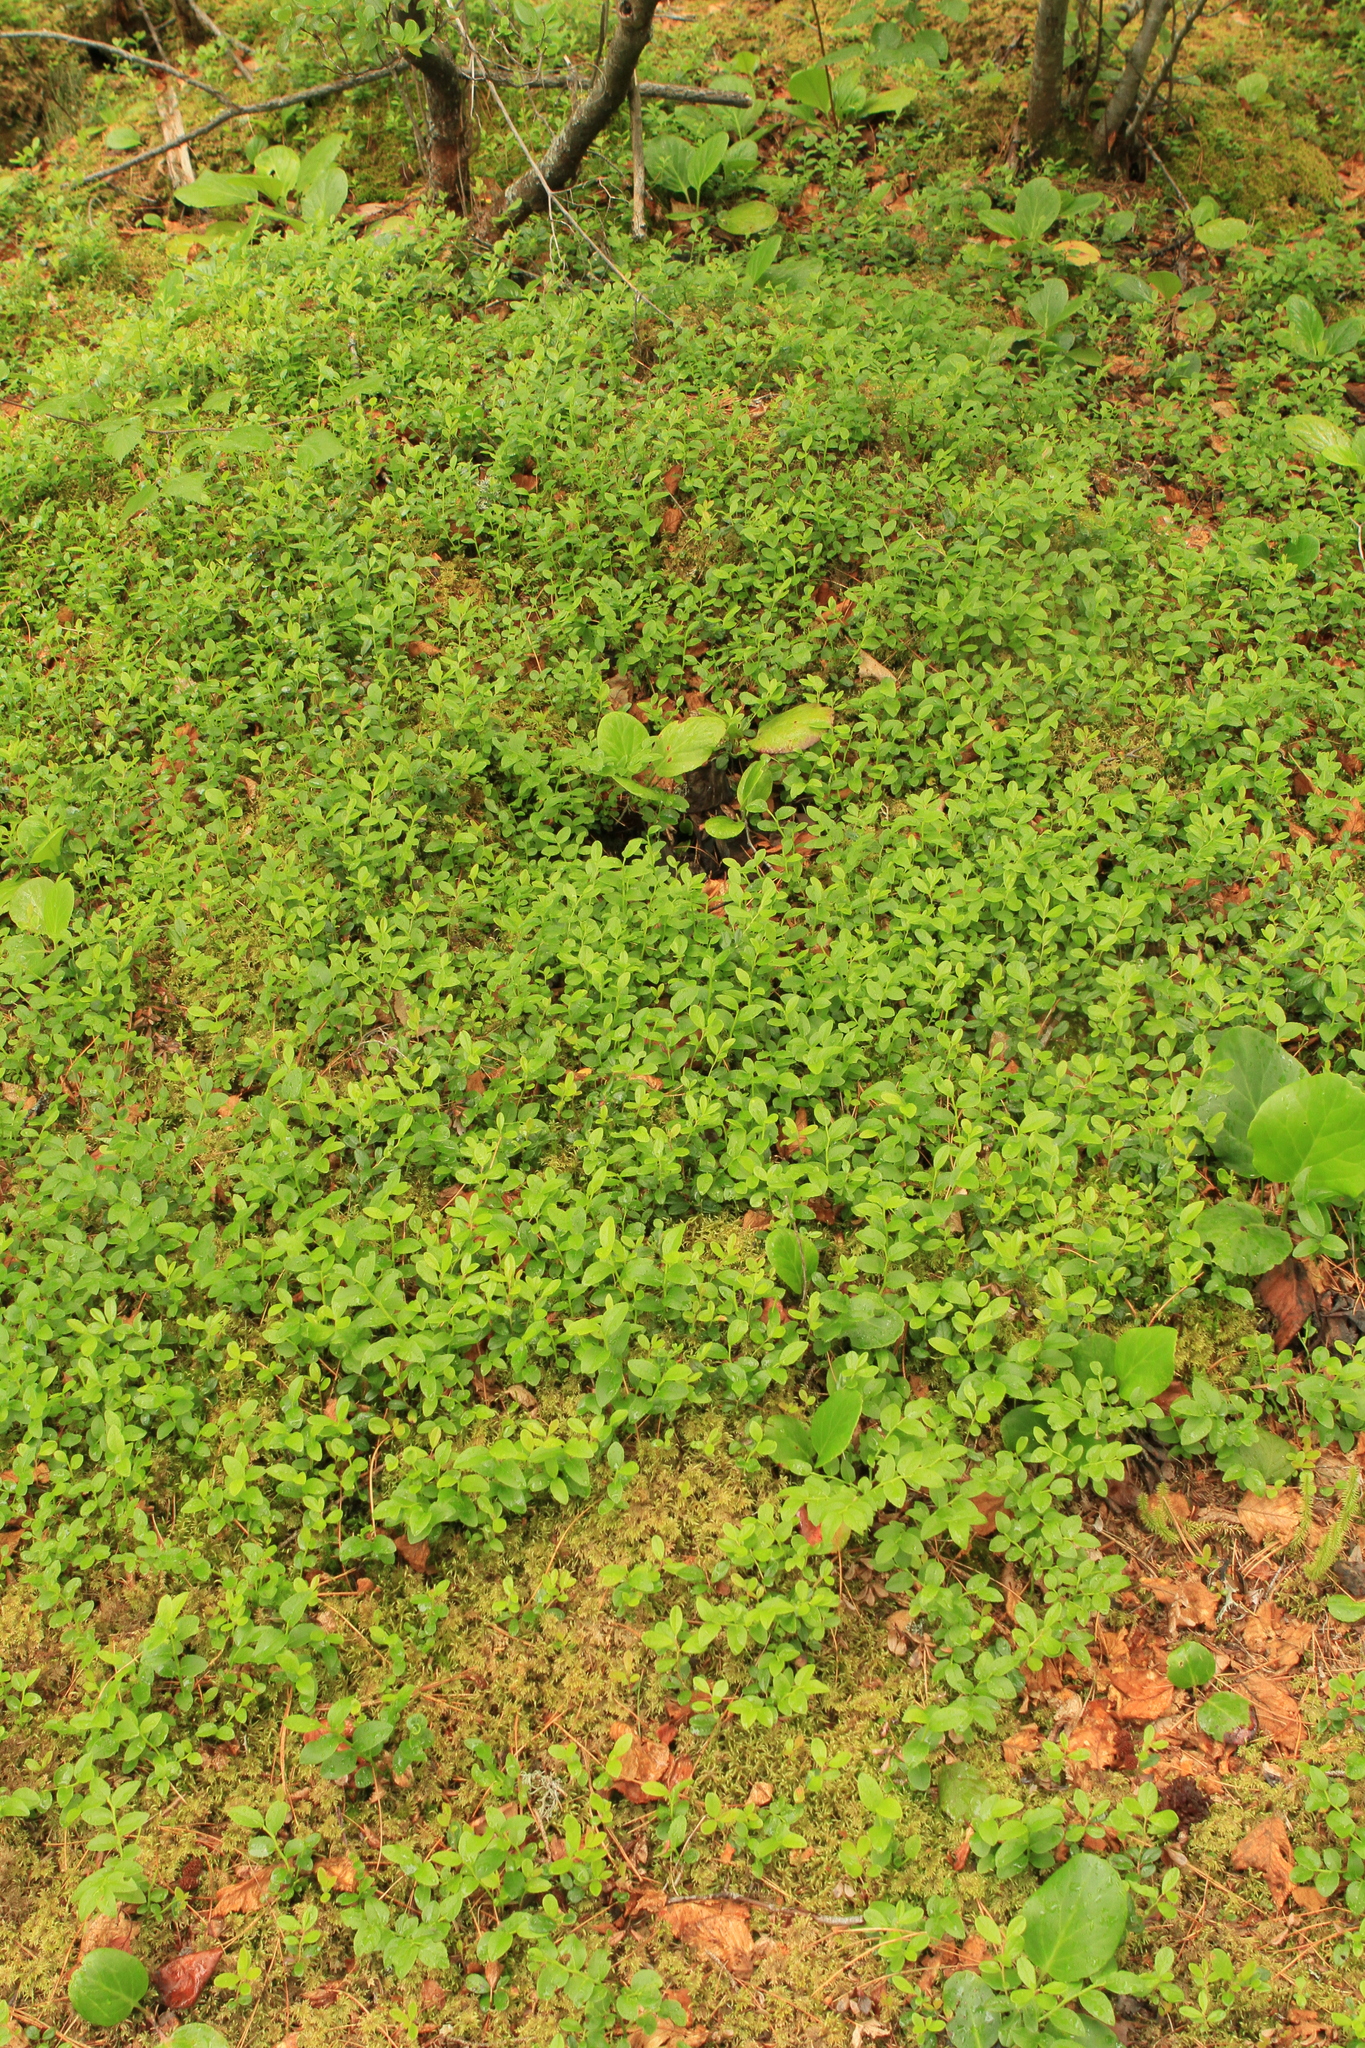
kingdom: Plantae
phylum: Tracheophyta
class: Magnoliopsida
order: Ericales
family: Ericaceae
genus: Vaccinium
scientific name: Vaccinium myrtillus
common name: Bilberry
